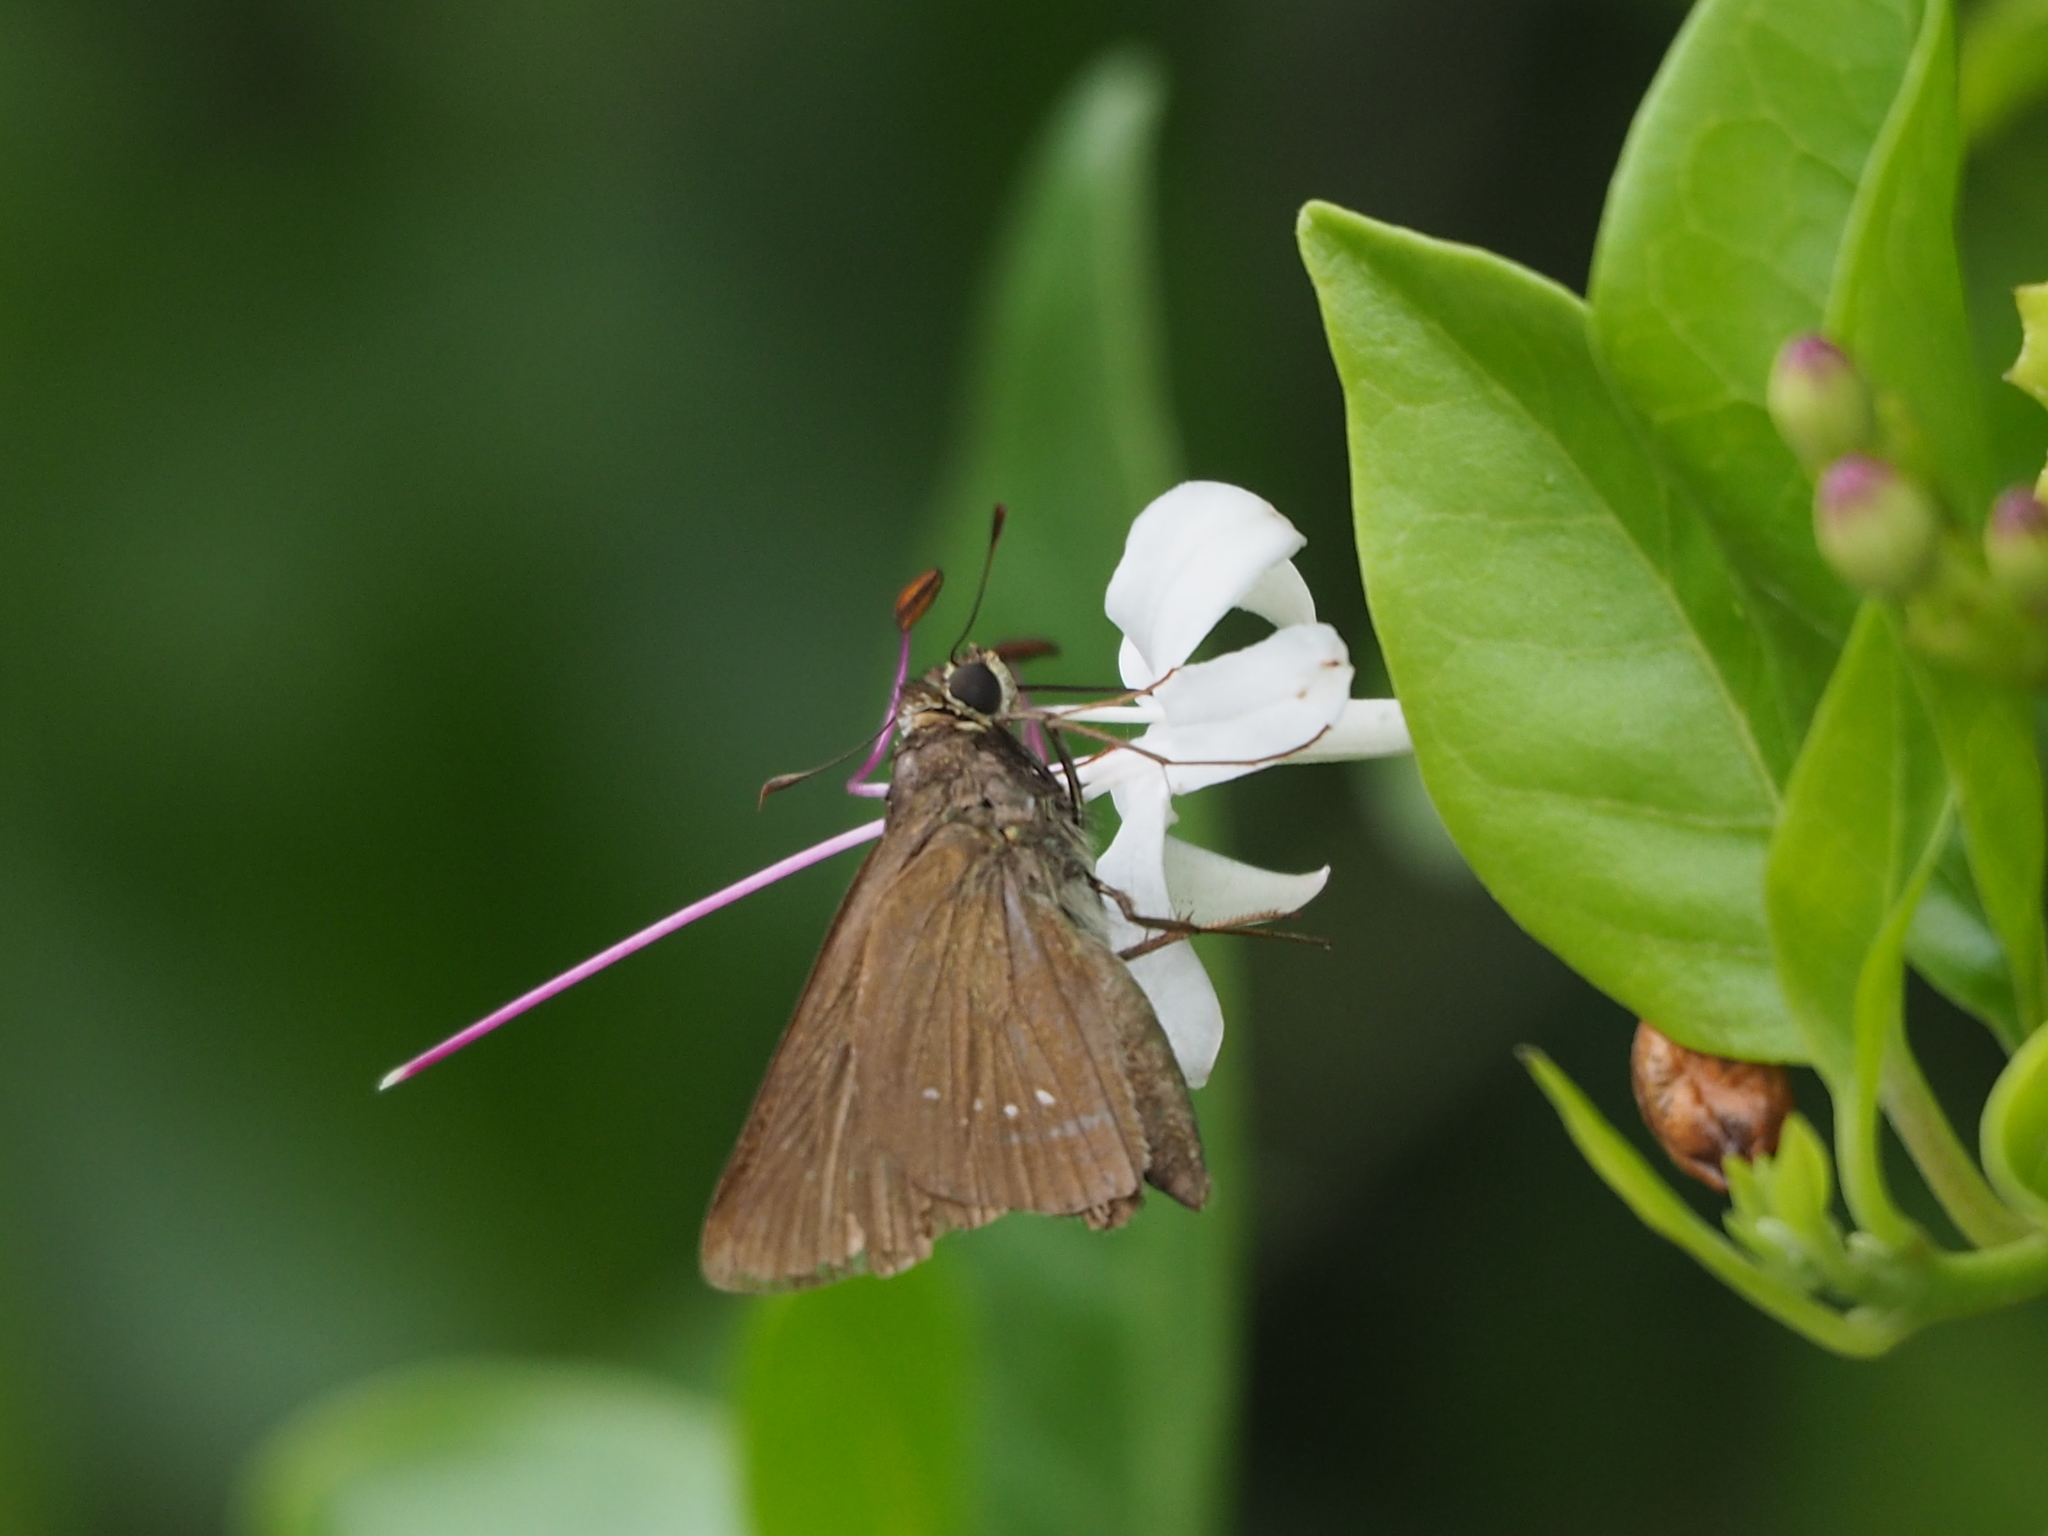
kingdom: Animalia
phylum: Arthropoda
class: Insecta
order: Lepidoptera
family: Hesperiidae
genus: Pelopidas
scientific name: Pelopidas agna
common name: Little branded swift
